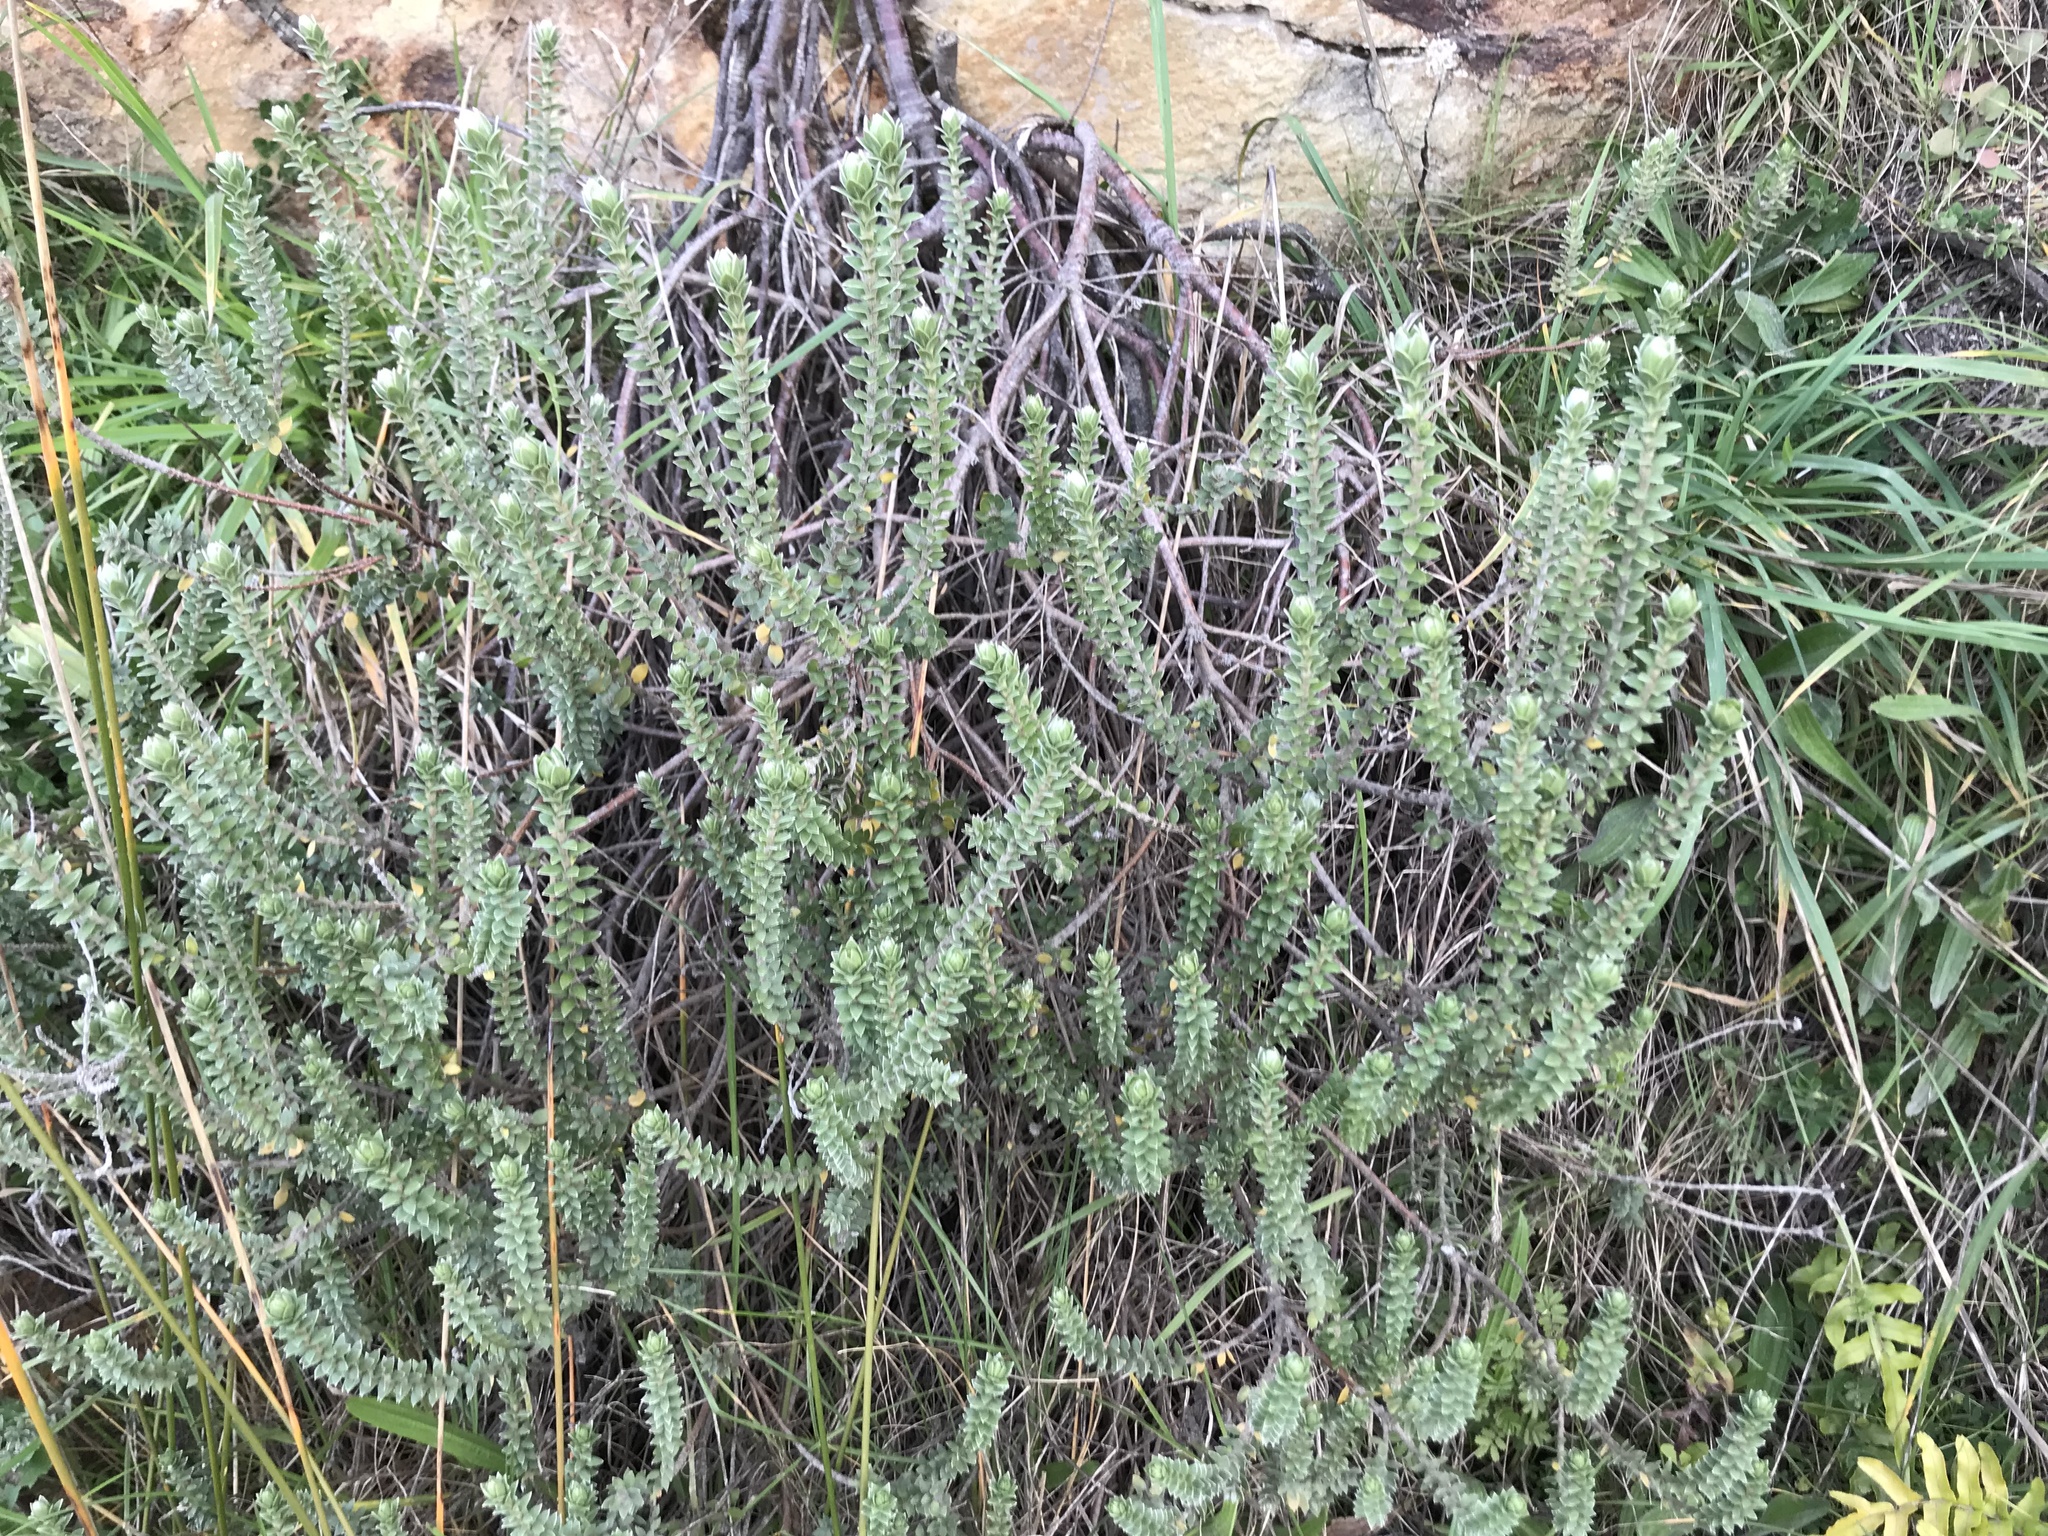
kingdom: Plantae
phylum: Tracheophyta
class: Magnoliopsida
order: Malvales
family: Thymelaeaceae
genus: Pimelea
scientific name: Pimelea villosa
